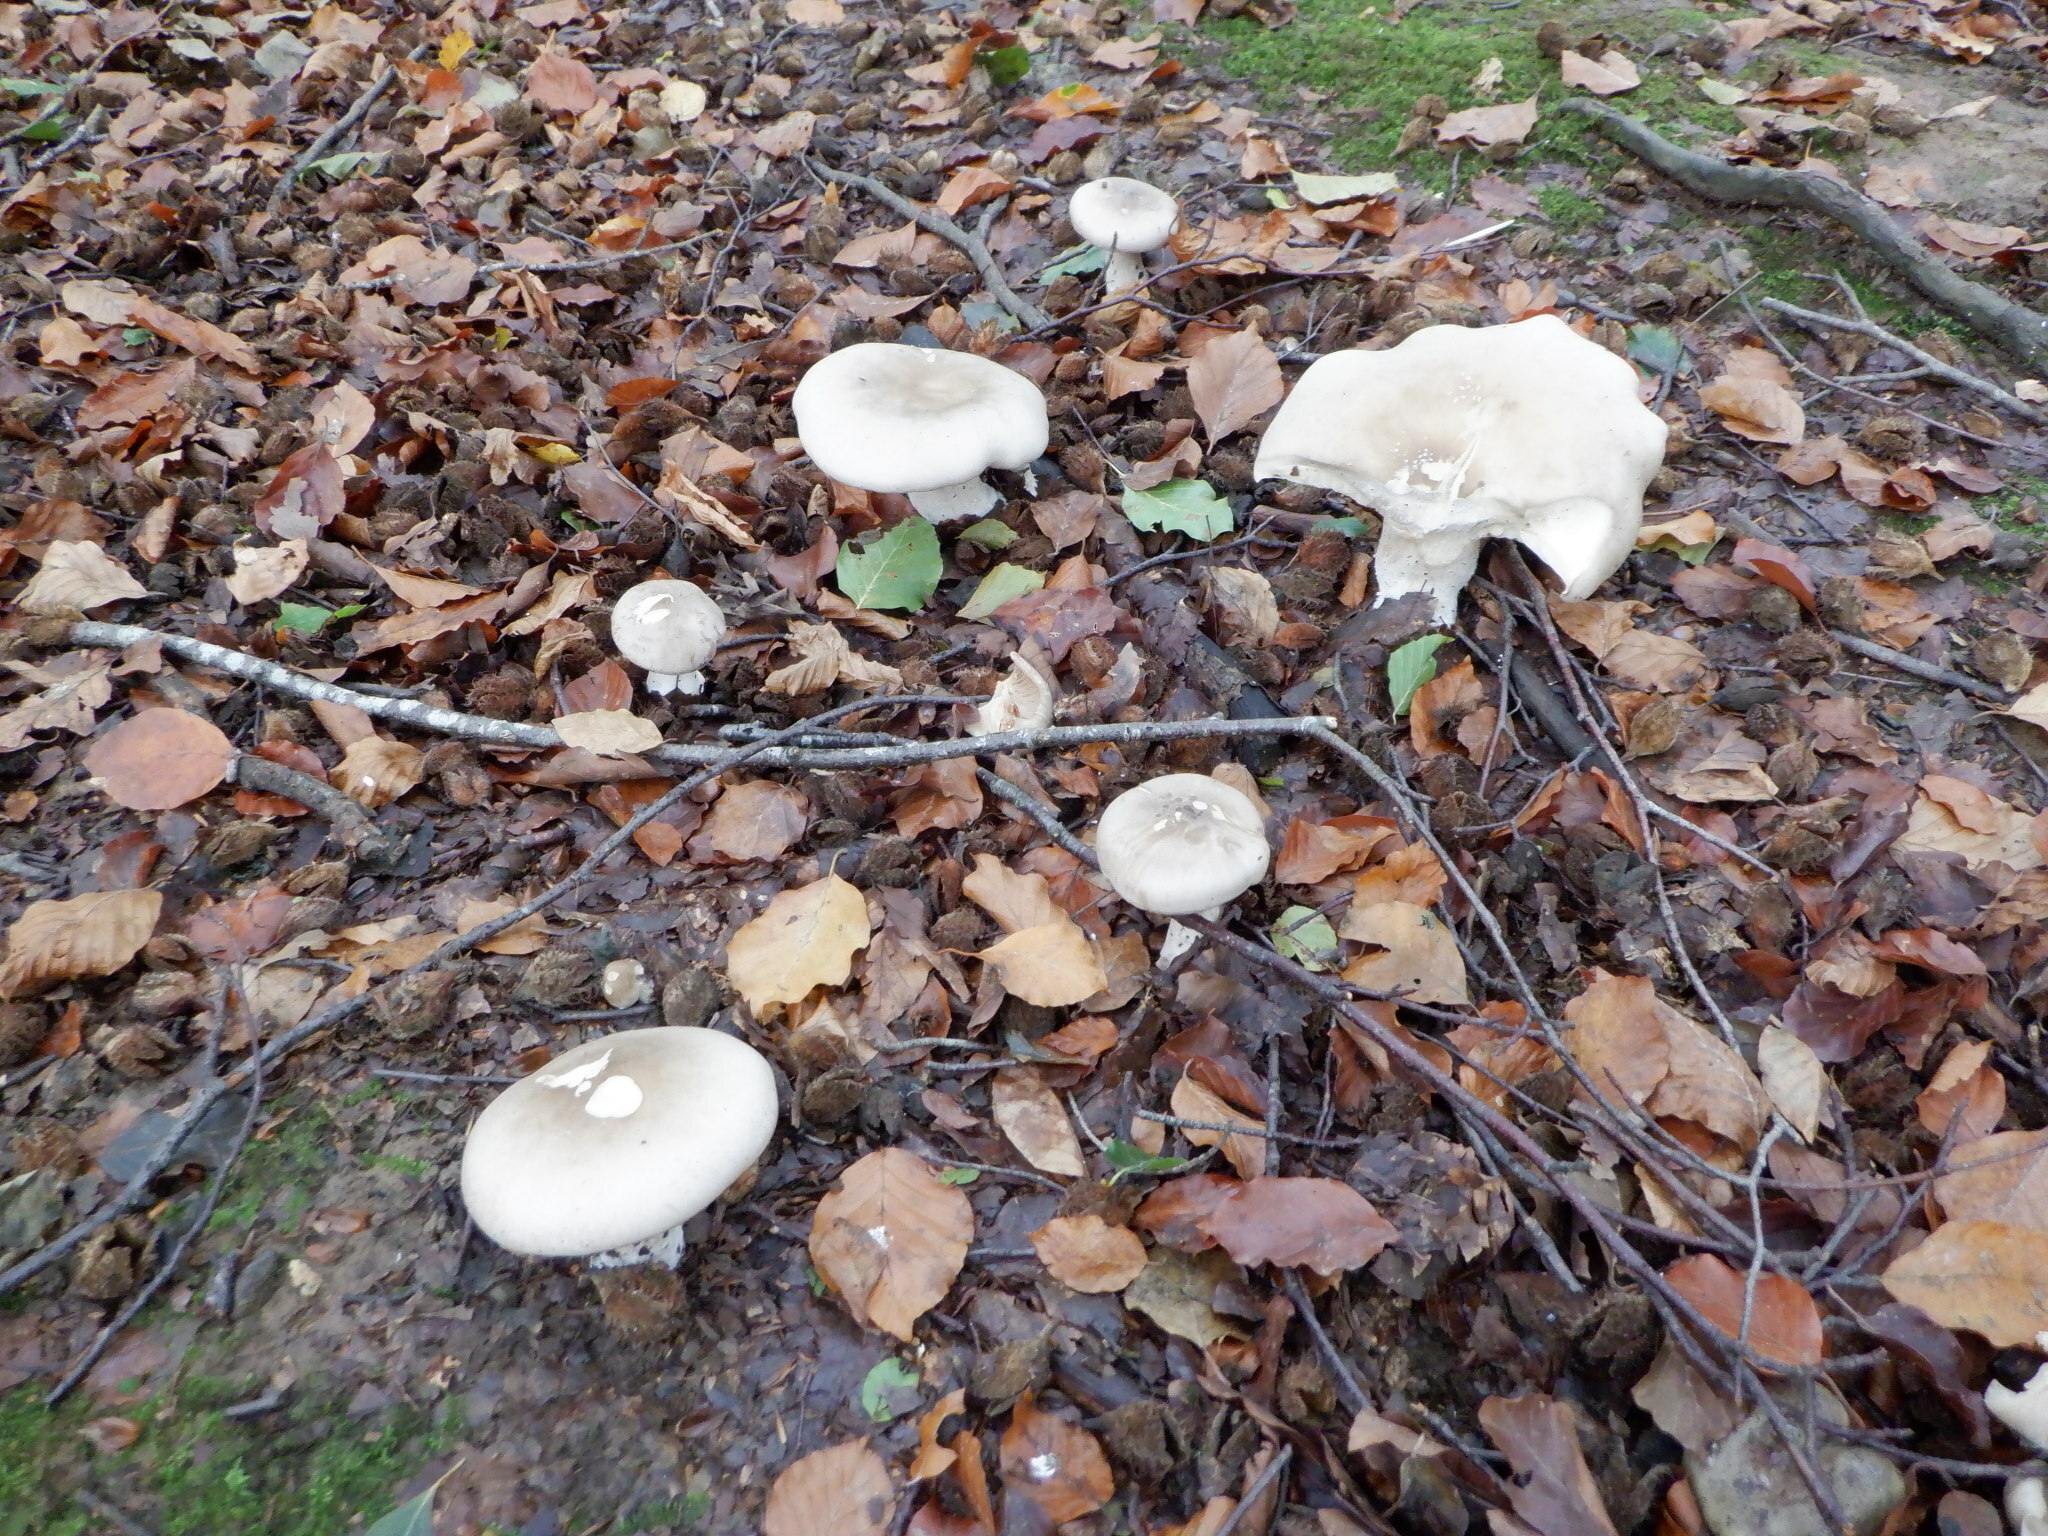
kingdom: Fungi
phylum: Basidiomycota
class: Agaricomycetes
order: Agaricales
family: Tricholomataceae
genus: Clitocybe
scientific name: Clitocybe nebularis
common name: Clouded agaric
